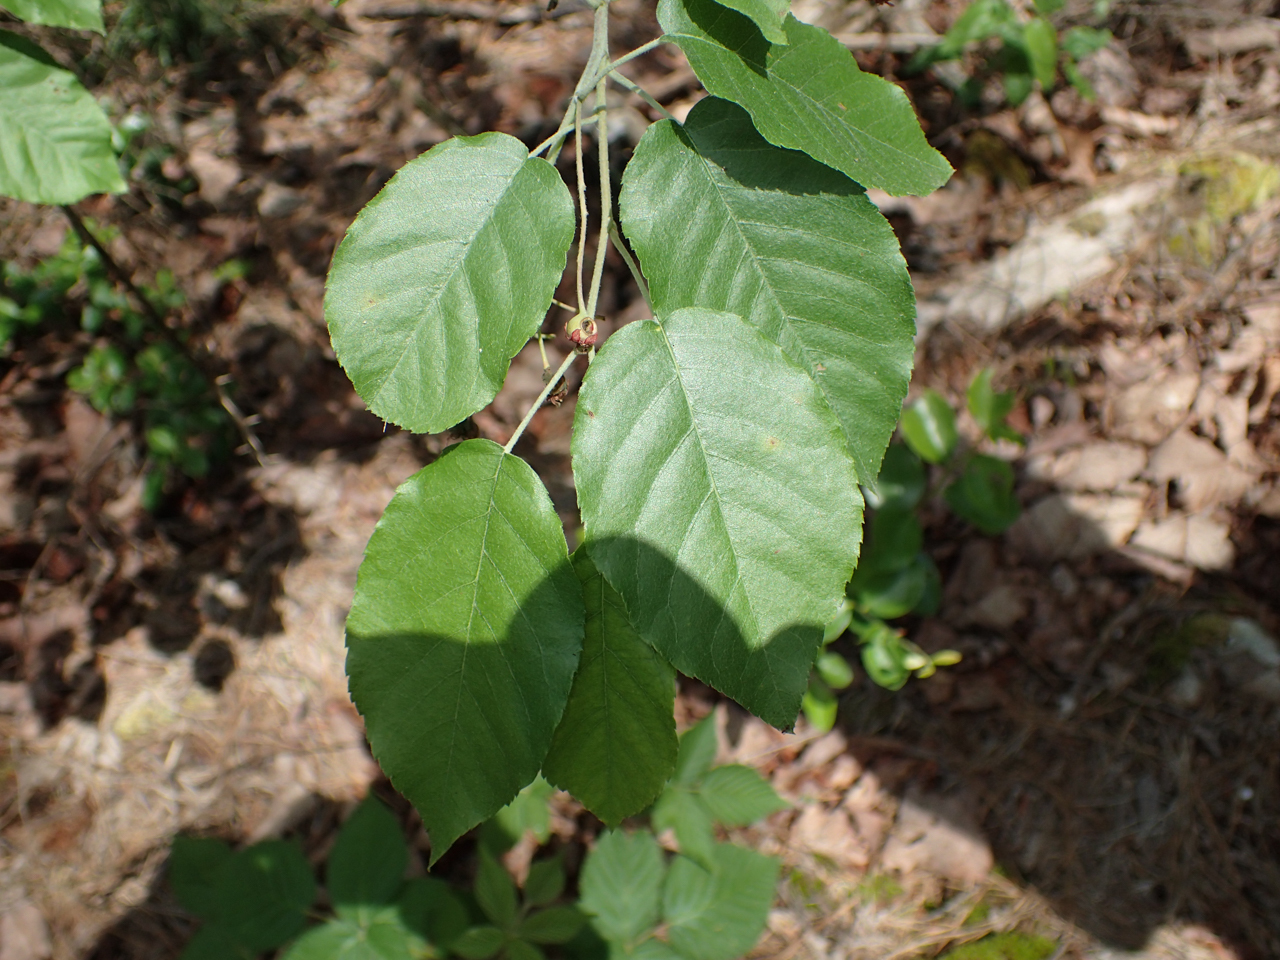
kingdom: Plantae
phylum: Tracheophyta
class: Magnoliopsida
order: Rosales
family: Rosaceae
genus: Amelanchier
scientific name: Amelanchier arborea
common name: Downy serviceberry
